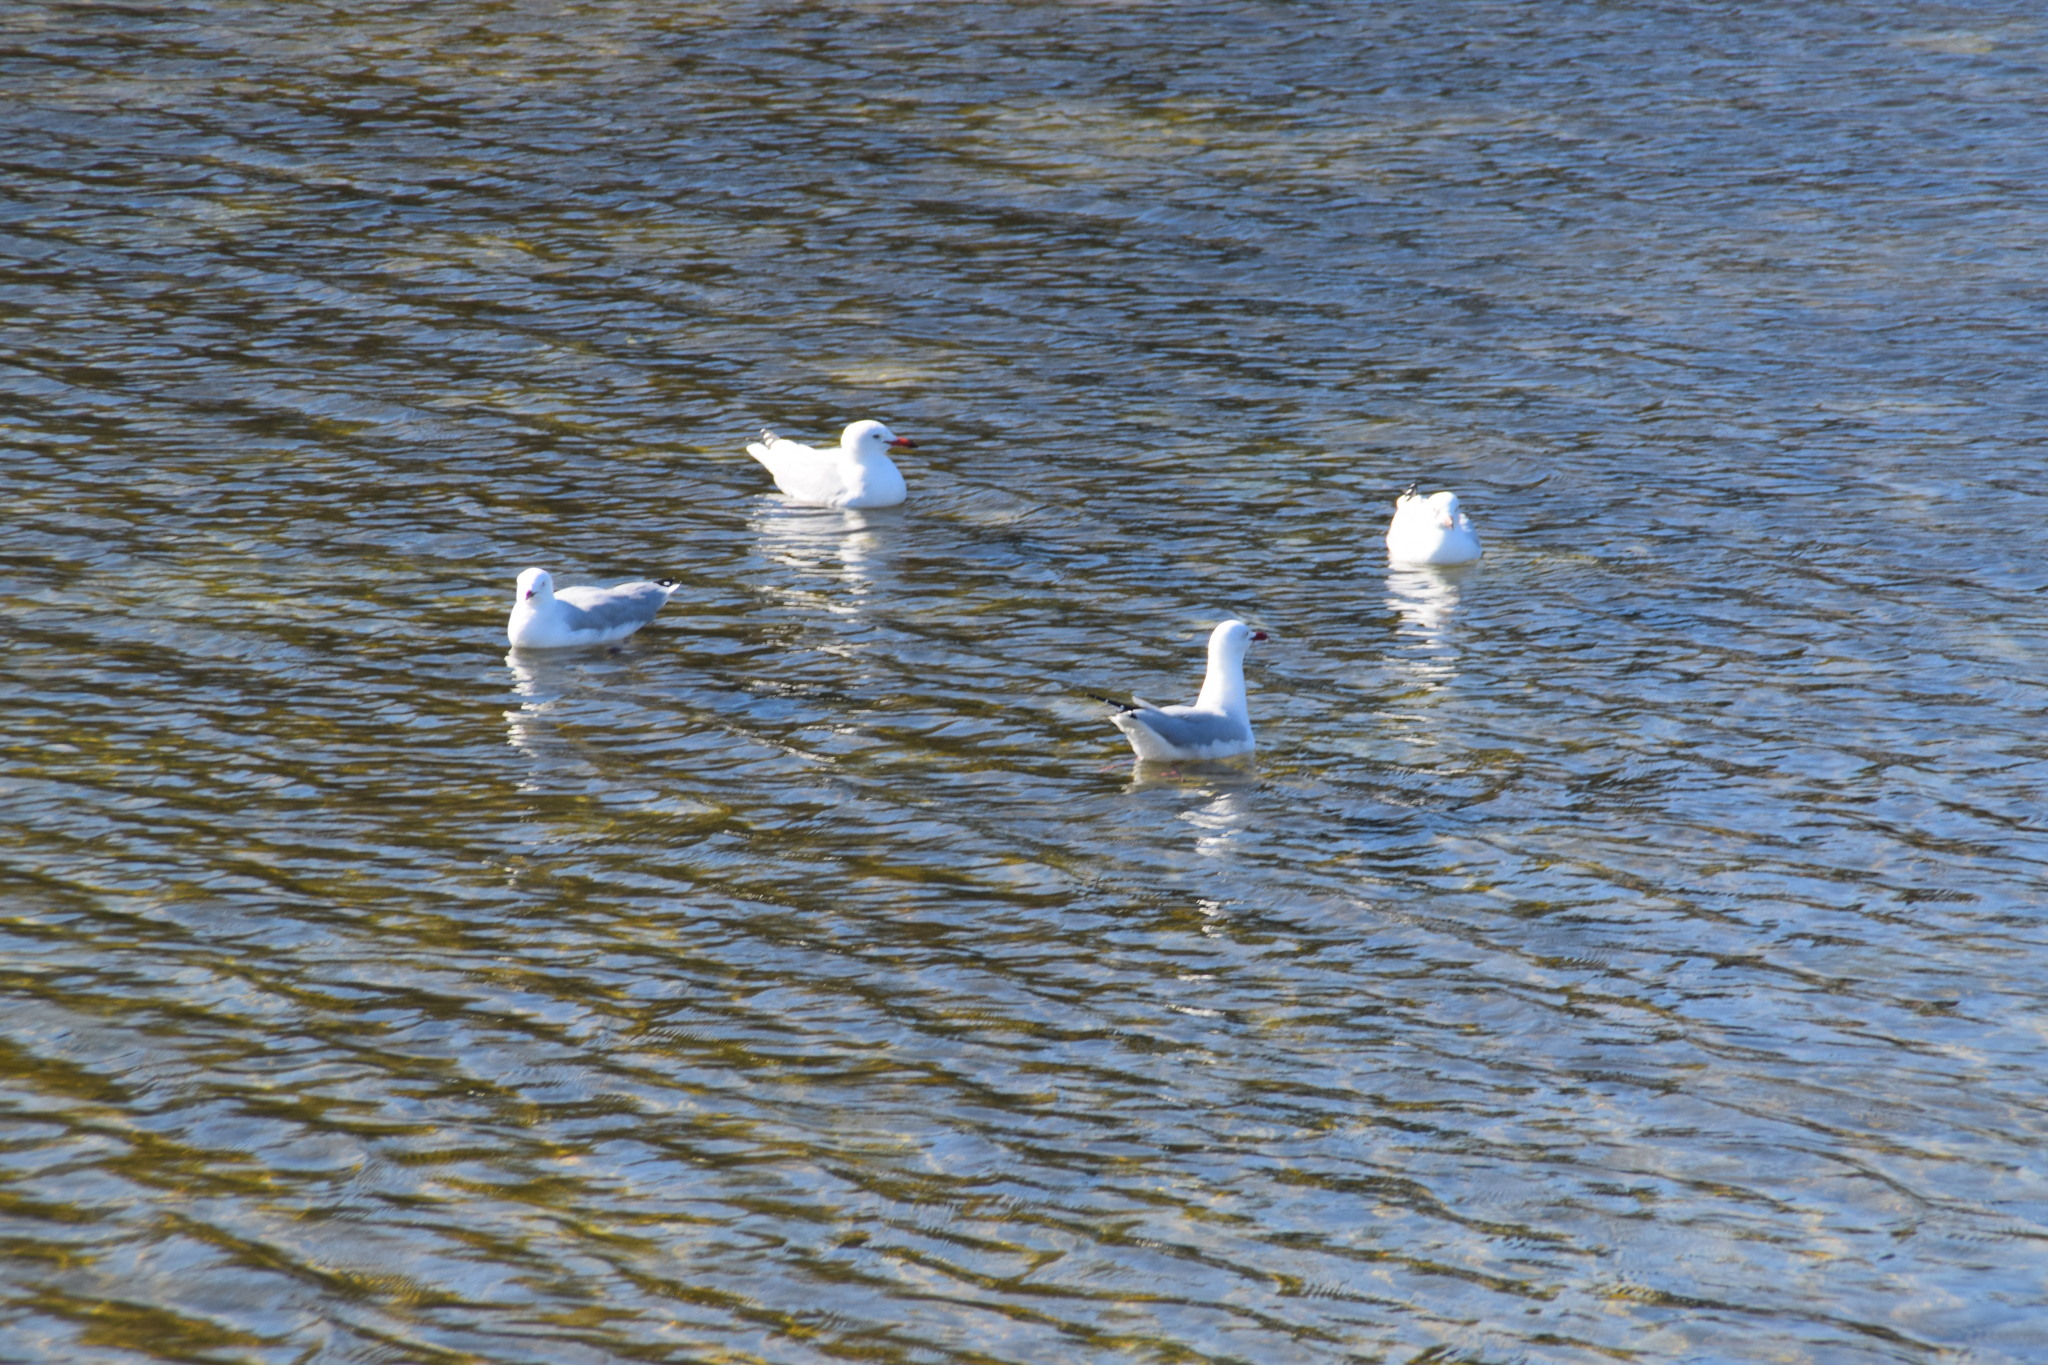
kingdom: Animalia
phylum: Chordata
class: Aves
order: Charadriiformes
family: Laridae
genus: Chroicocephalus
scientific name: Chroicocephalus novaehollandiae
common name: Silver gull
